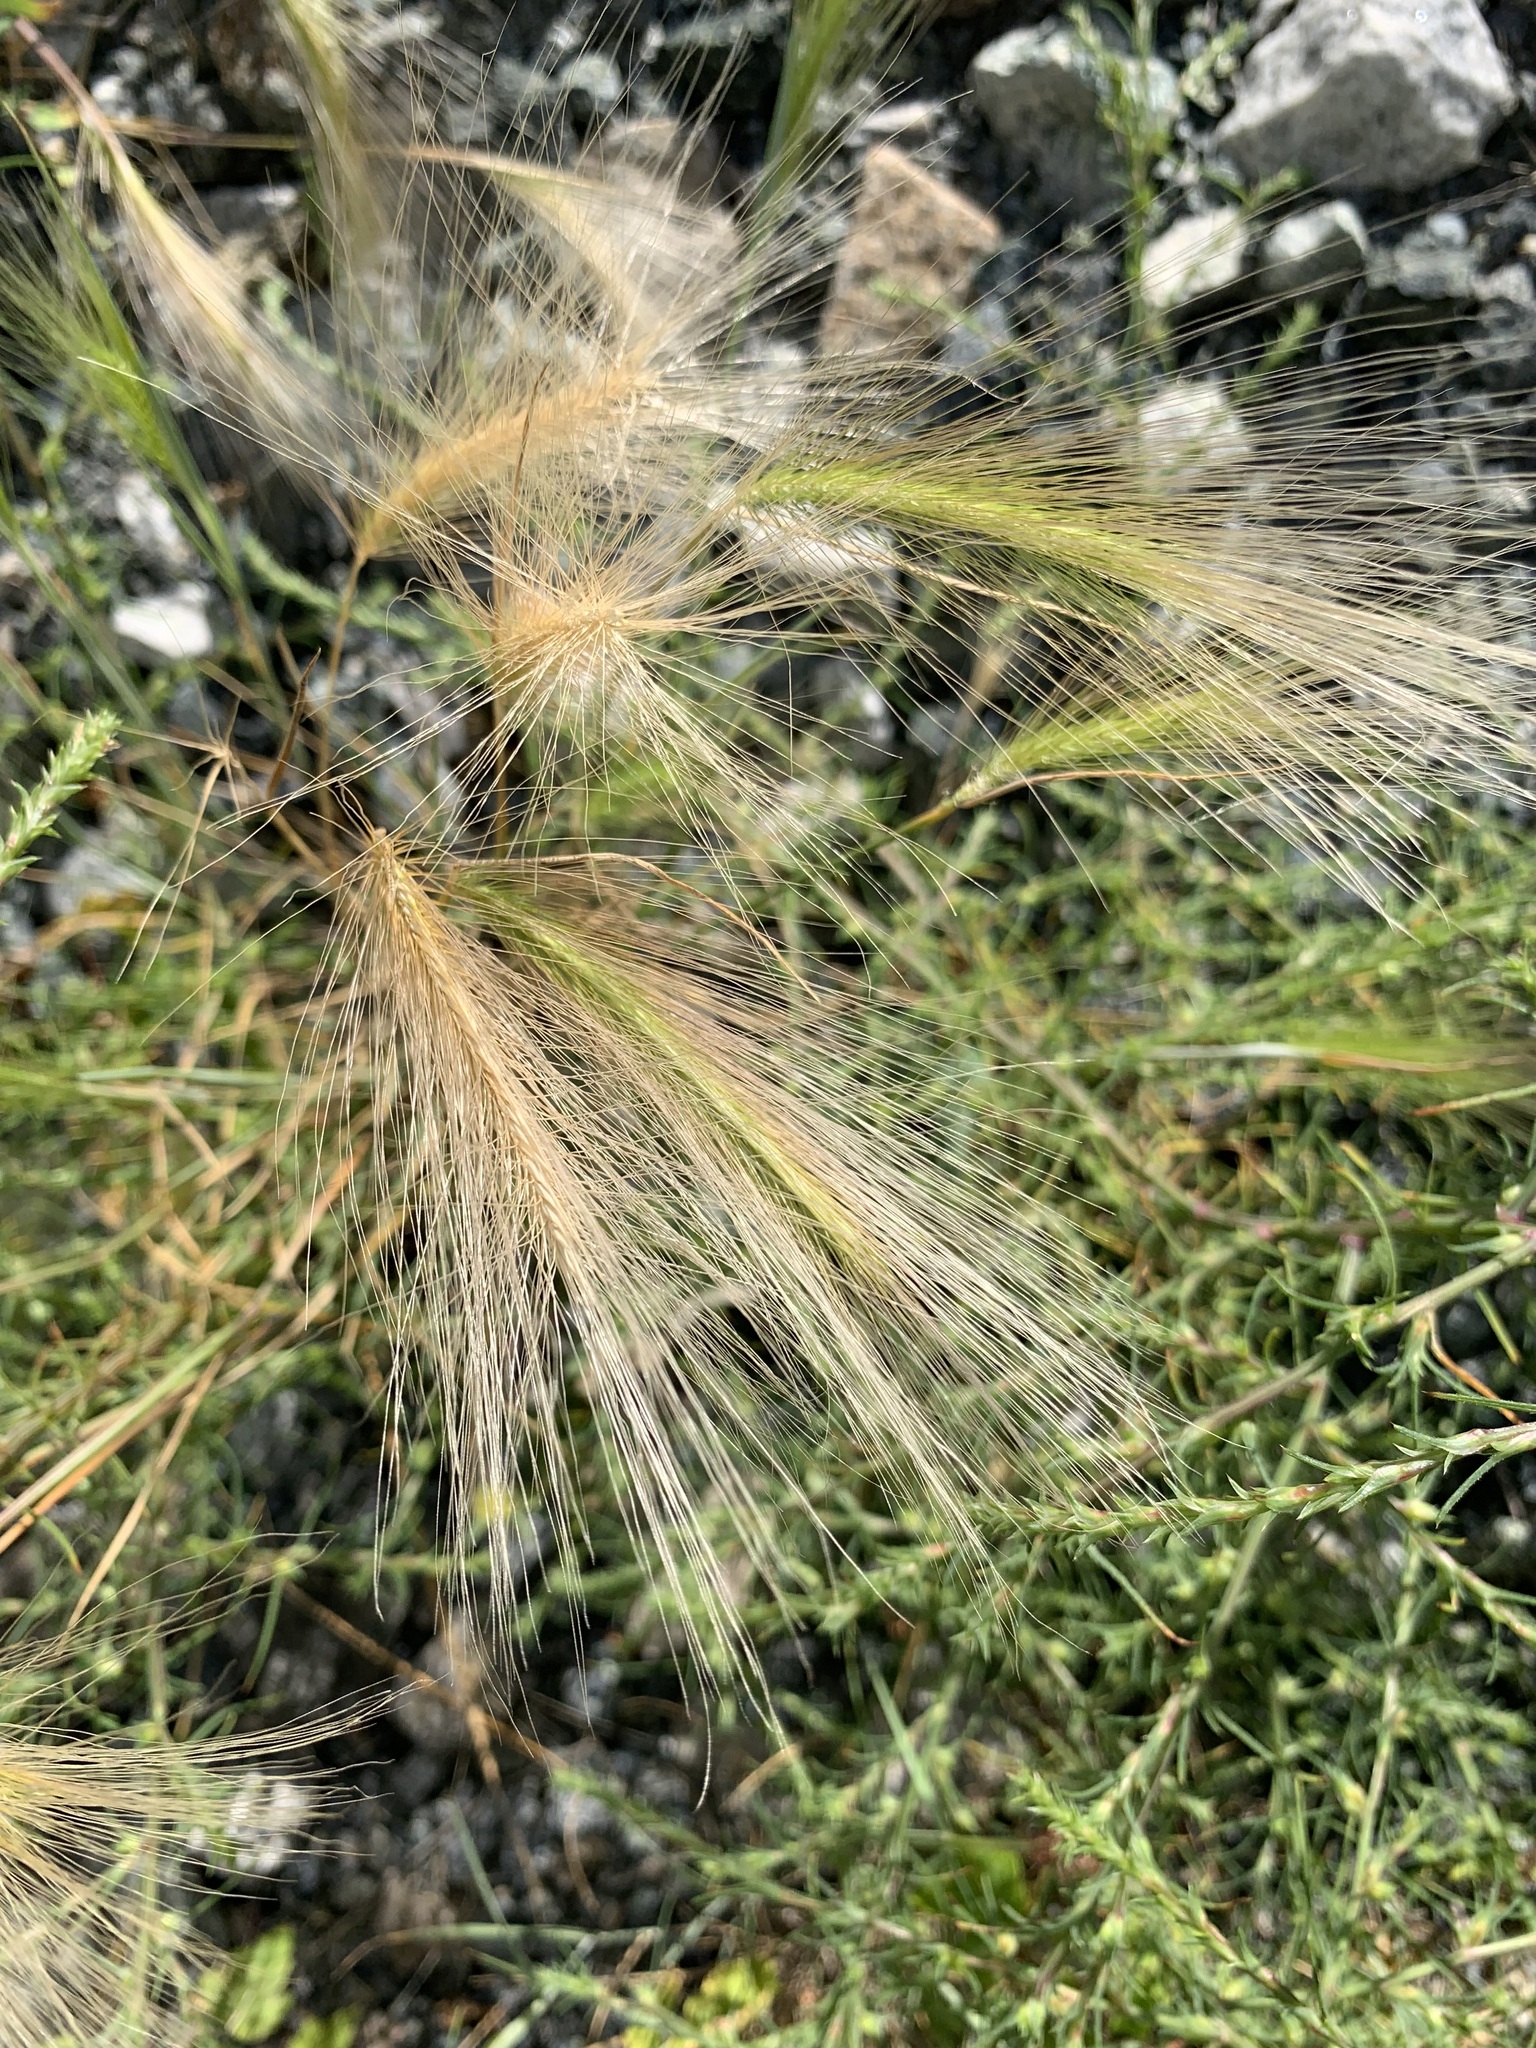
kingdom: Plantae
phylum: Tracheophyta
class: Liliopsida
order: Poales
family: Poaceae
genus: Hordeum
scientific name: Hordeum jubatum
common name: Foxtail barley
